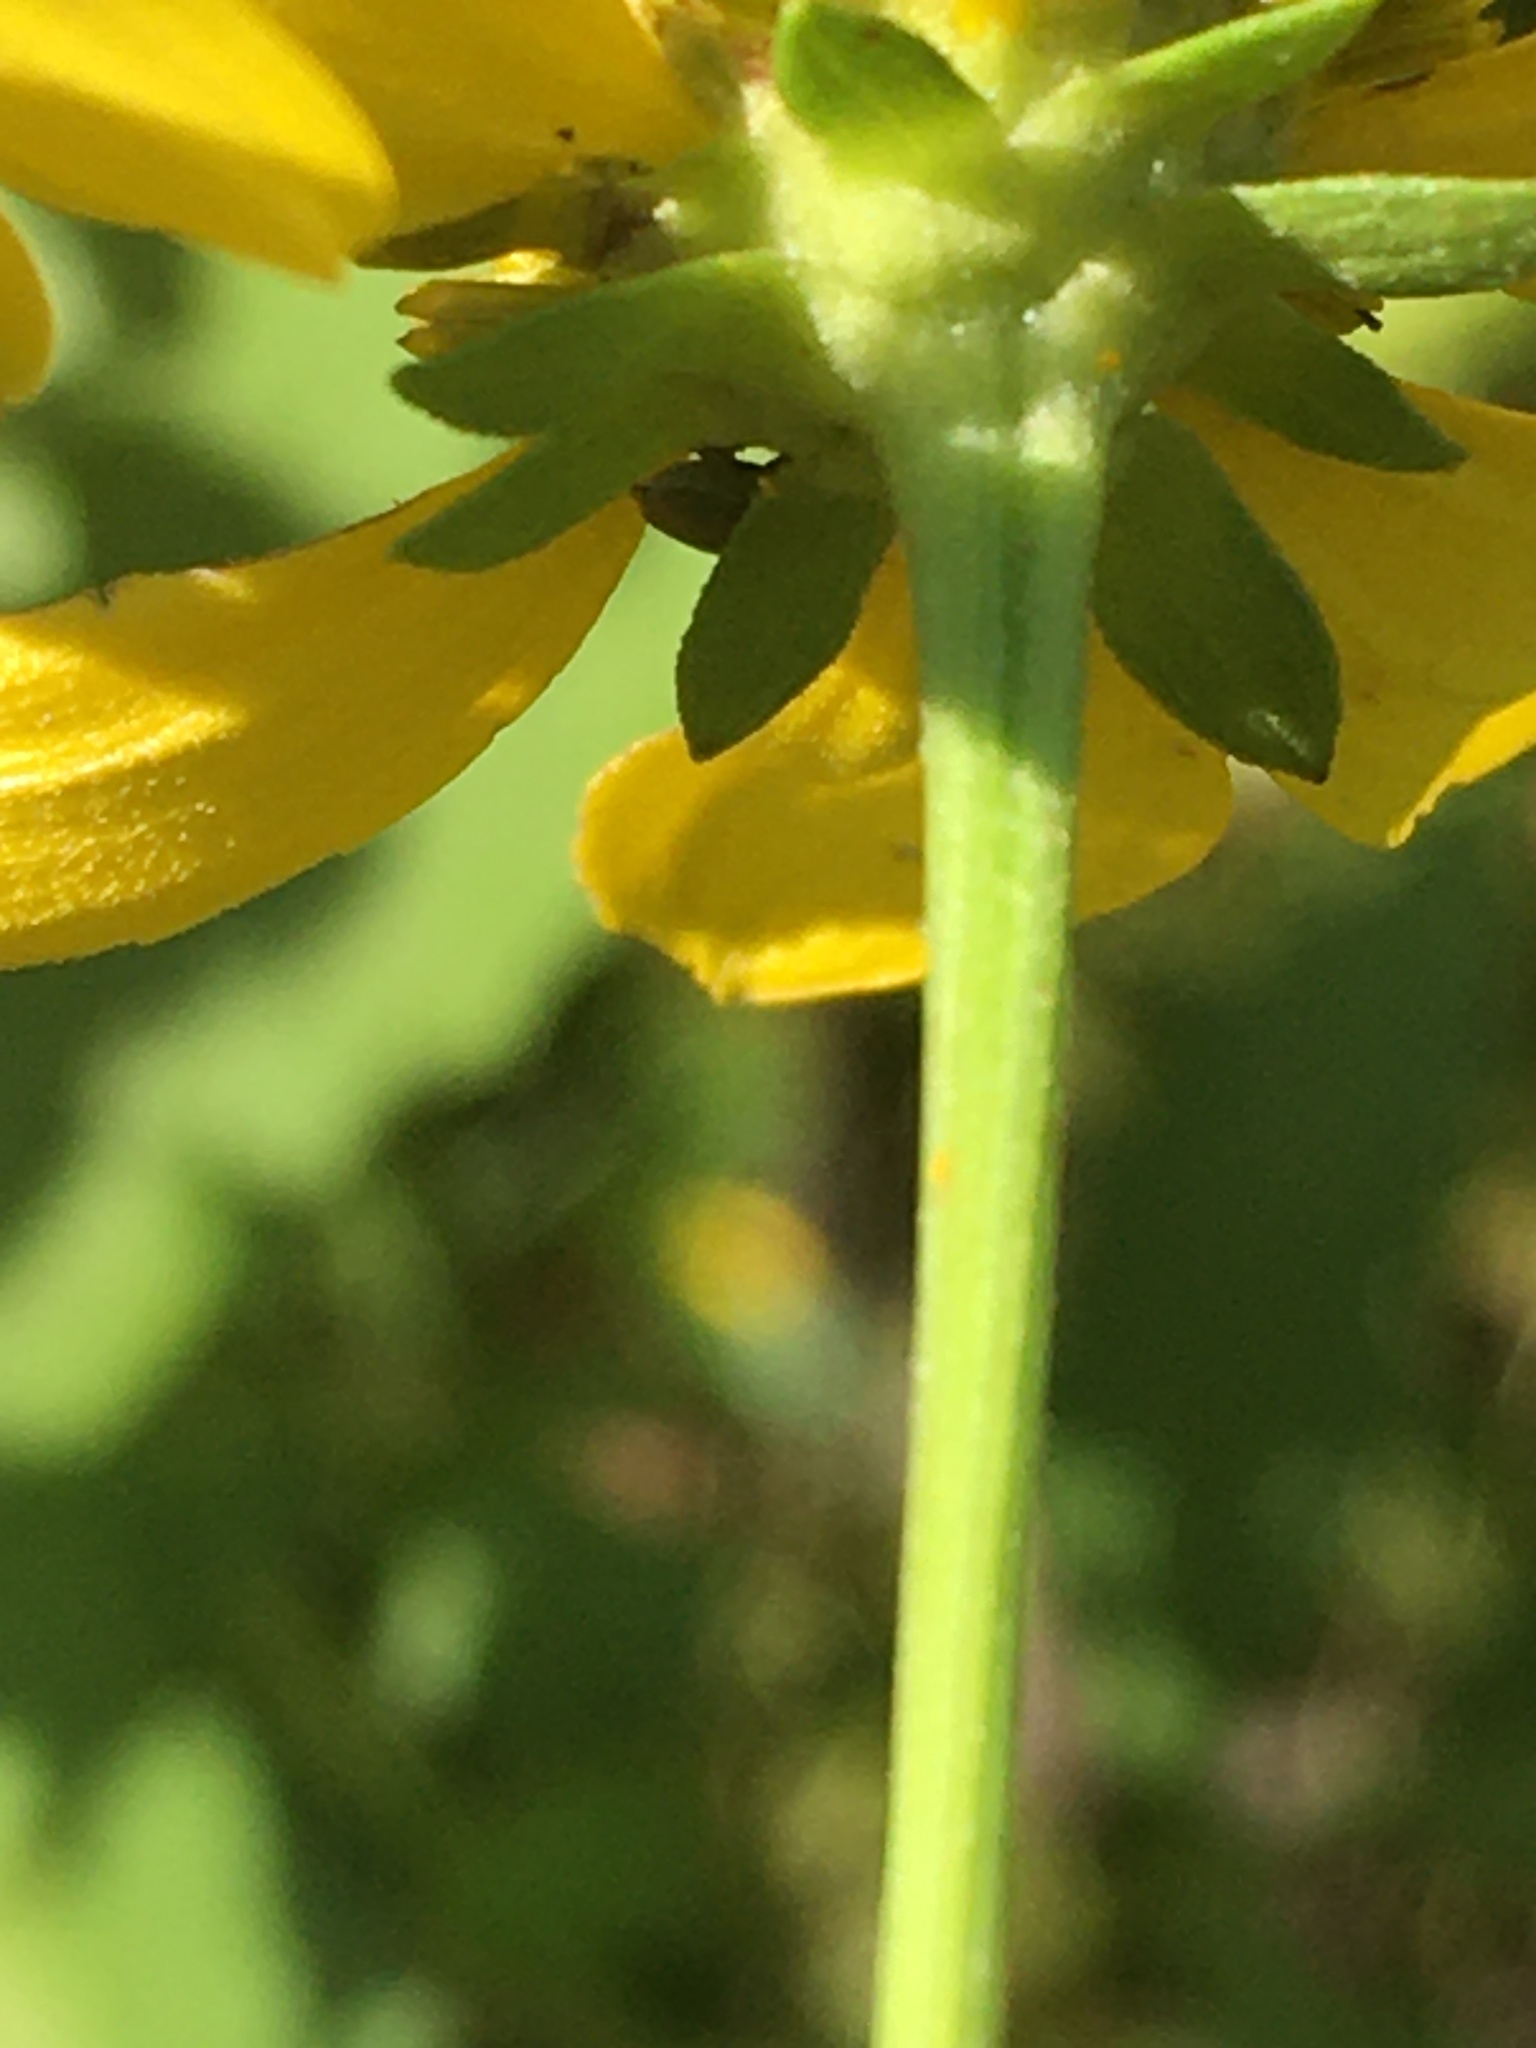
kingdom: Plantae
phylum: Tracheophyta
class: Magnoliopsida
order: Asterales
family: Asteraceae
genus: Rudbeckia
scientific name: Rudbeckia laciniata
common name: Coneflower
